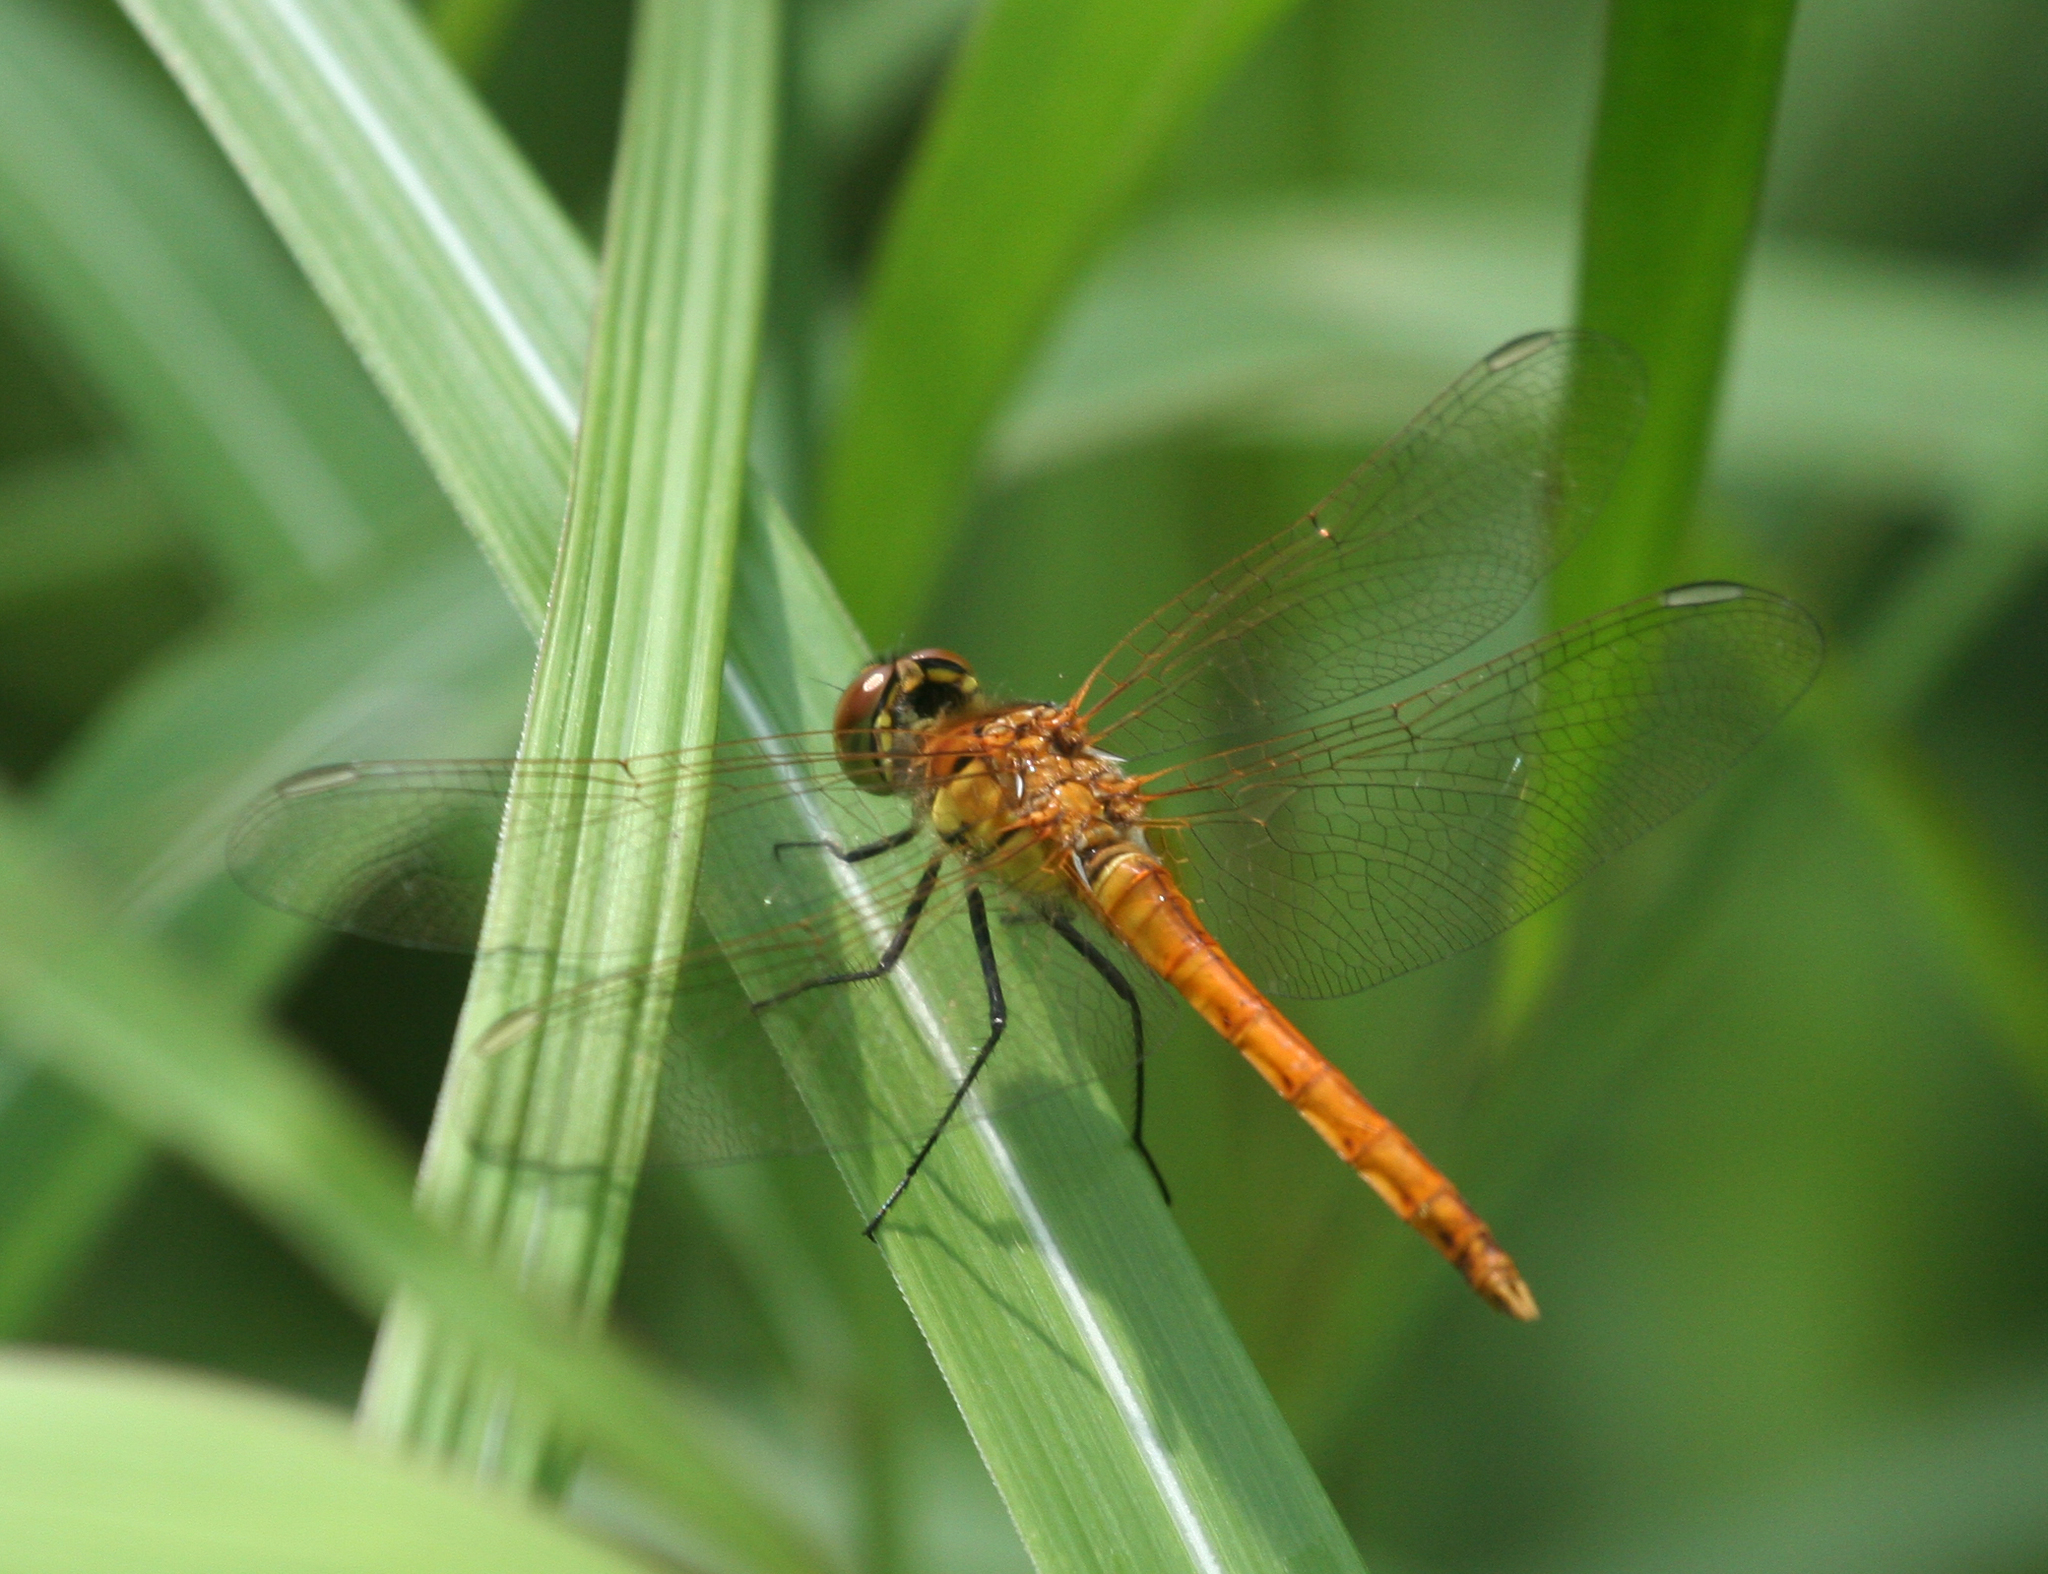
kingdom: Animalia
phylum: Arthropoda
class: Insecta
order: Odonata
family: Libellulidae
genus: Sympetrum
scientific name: Sympetrum cordulegaster
